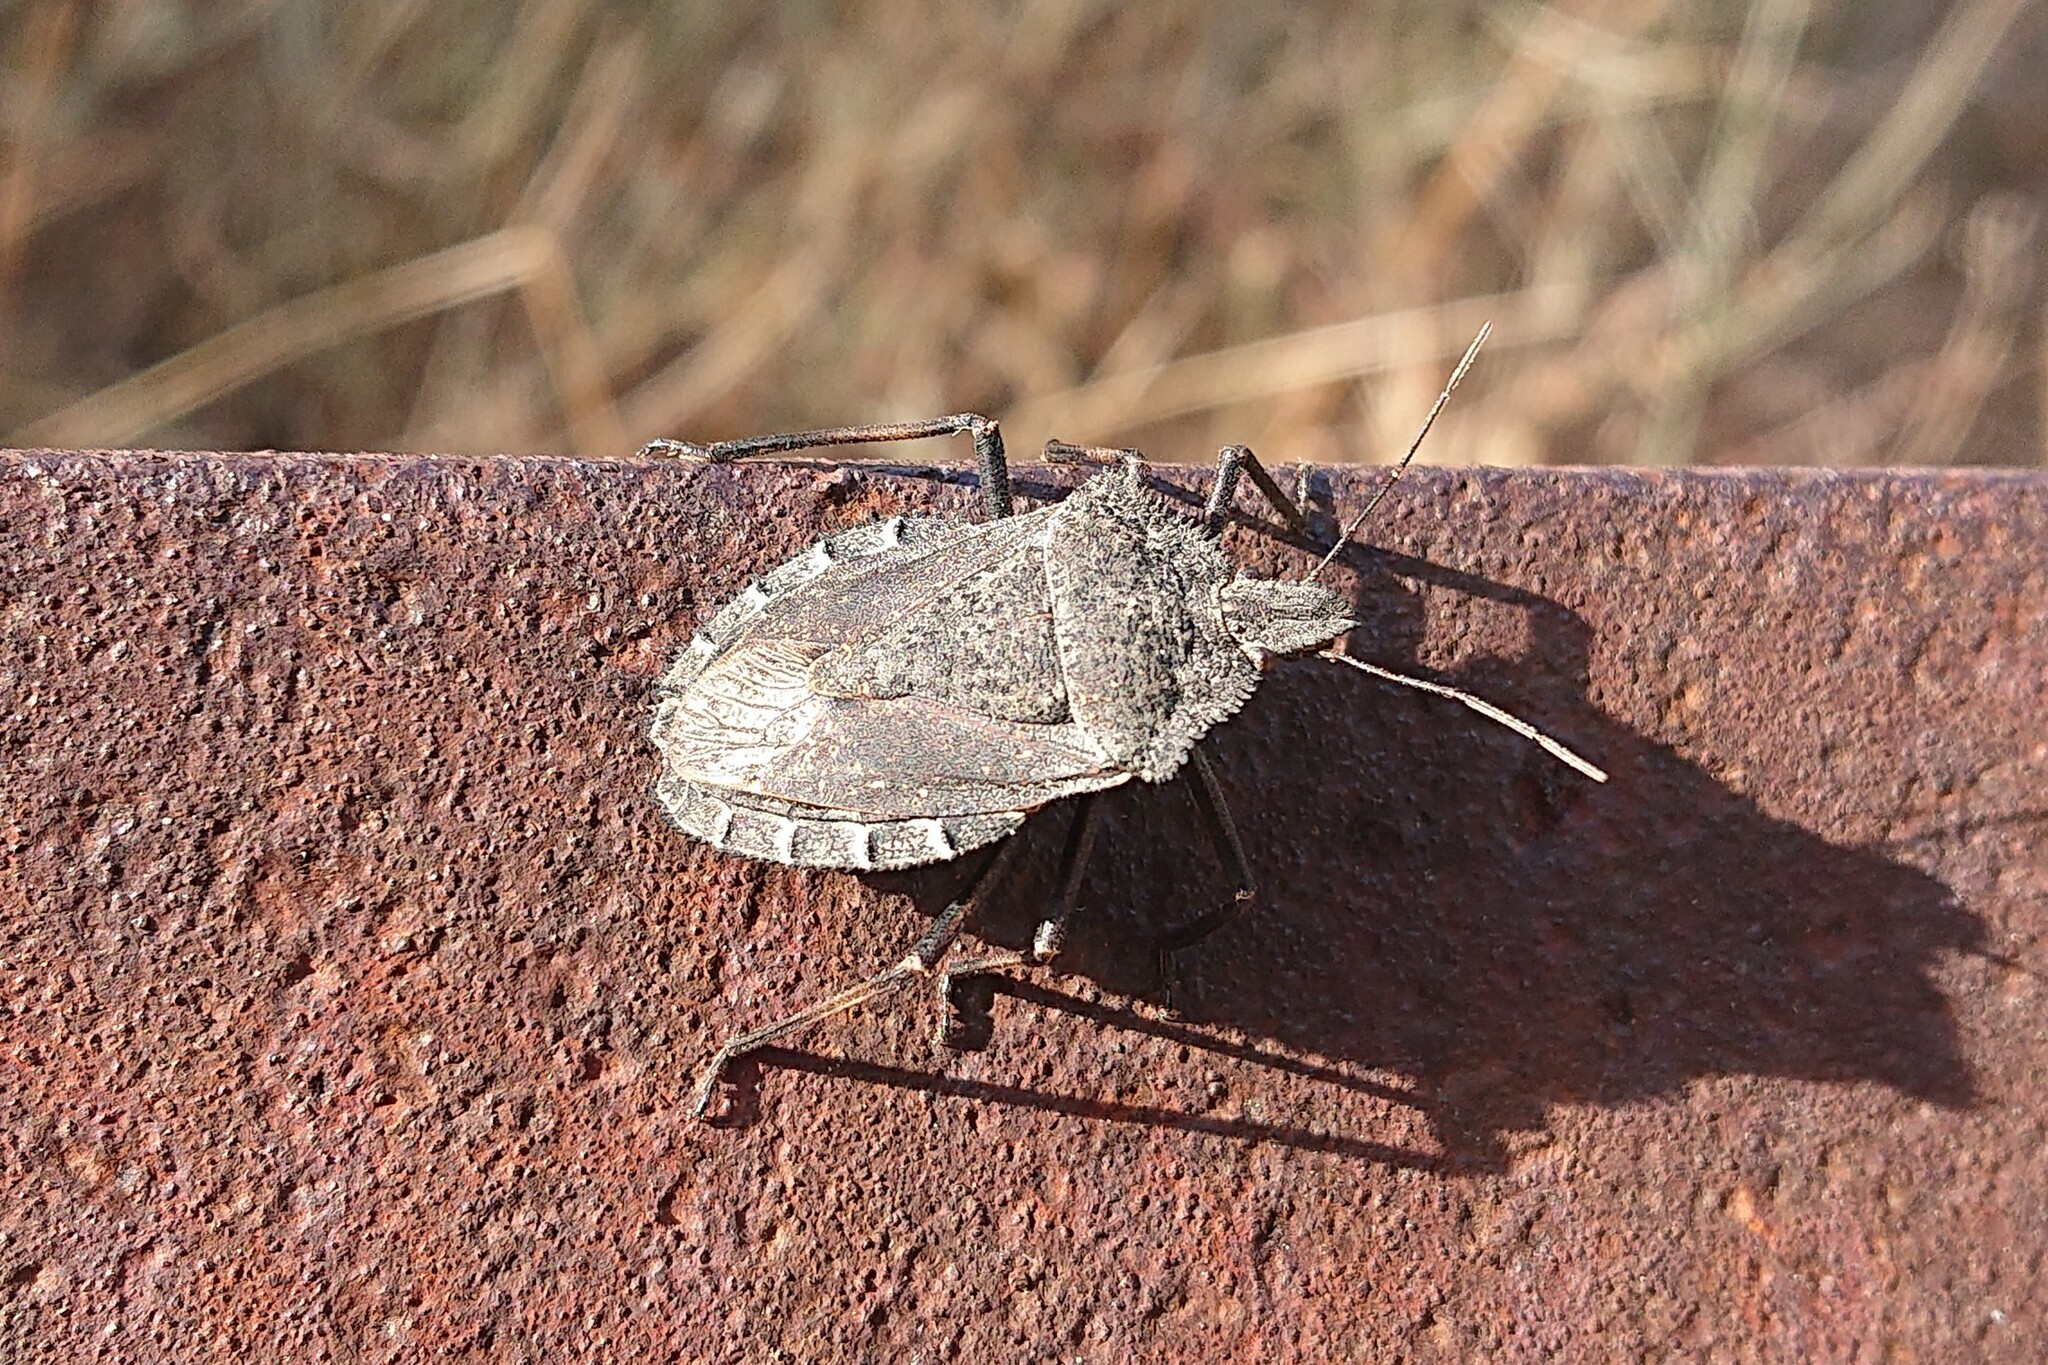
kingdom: Animalia
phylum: Arthropoda
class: Insecta
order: Hemiptera
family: Pentatomidae
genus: Mustha
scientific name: Mustha spinosula
